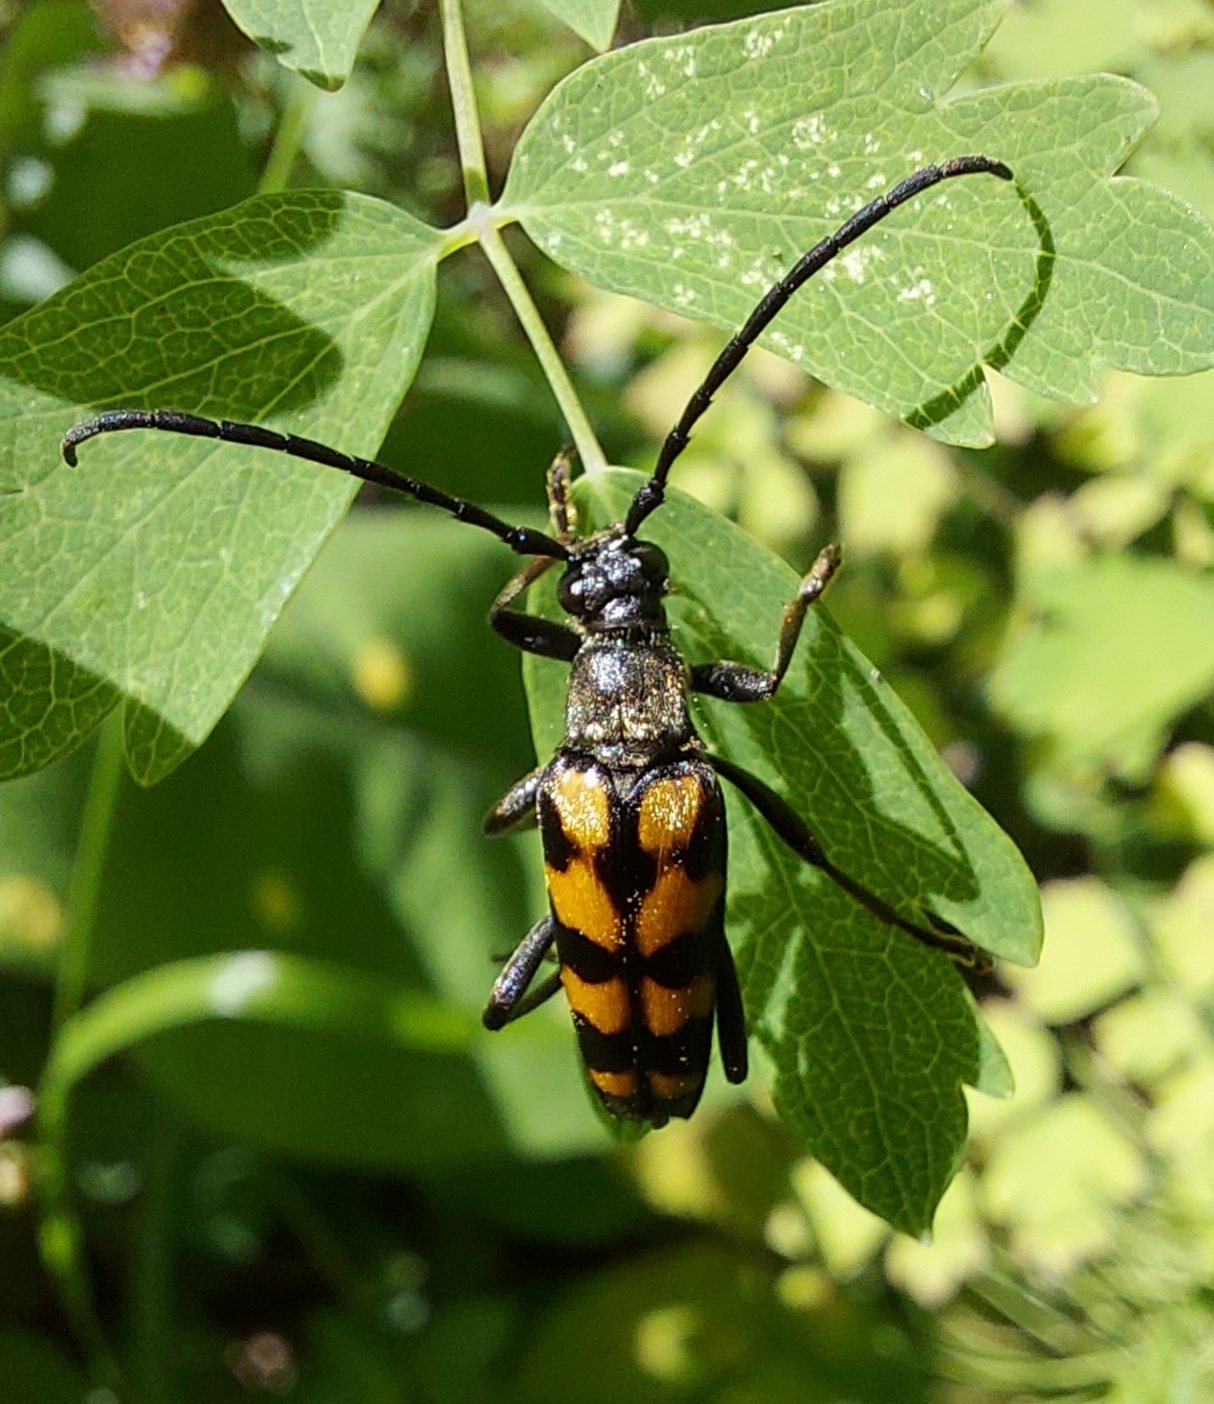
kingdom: Animalia
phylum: Arthropoda
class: Insecta
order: Coleoptera
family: Cerambycidae
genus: Leptura
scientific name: Leptura quadrifasciata
